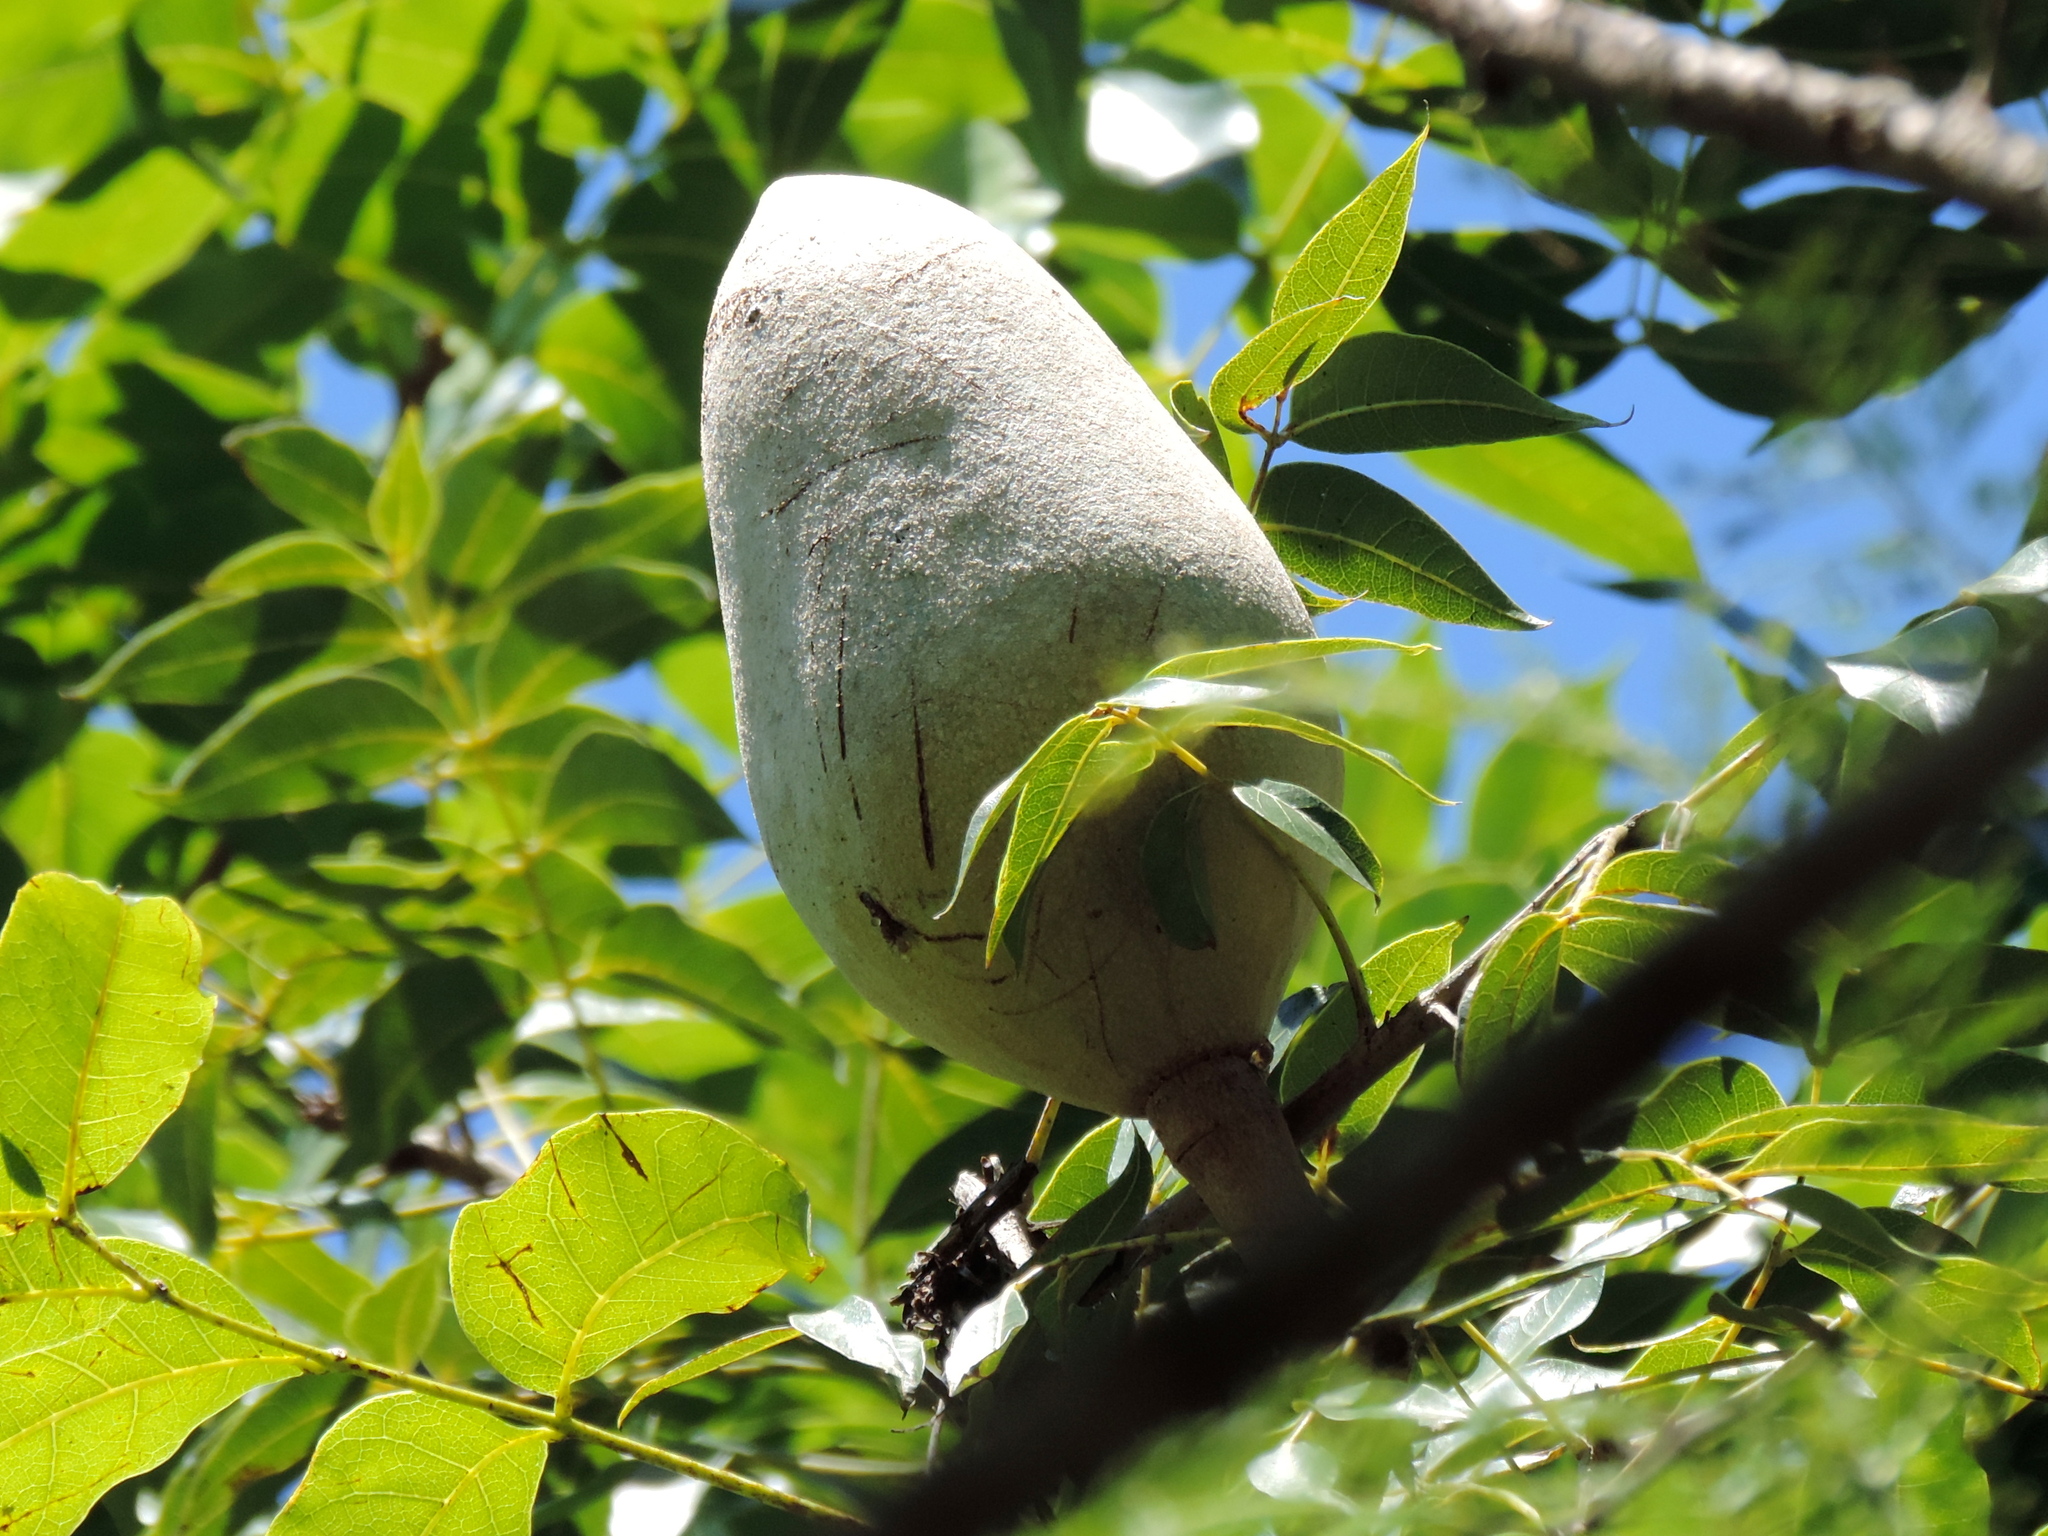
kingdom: Plantae
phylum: Tracheophyta
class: Magnoliopsida
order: Sapindales
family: Meliaceae
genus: Swietenia
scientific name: Swietenia humilis
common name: Pacific coast mahogany
